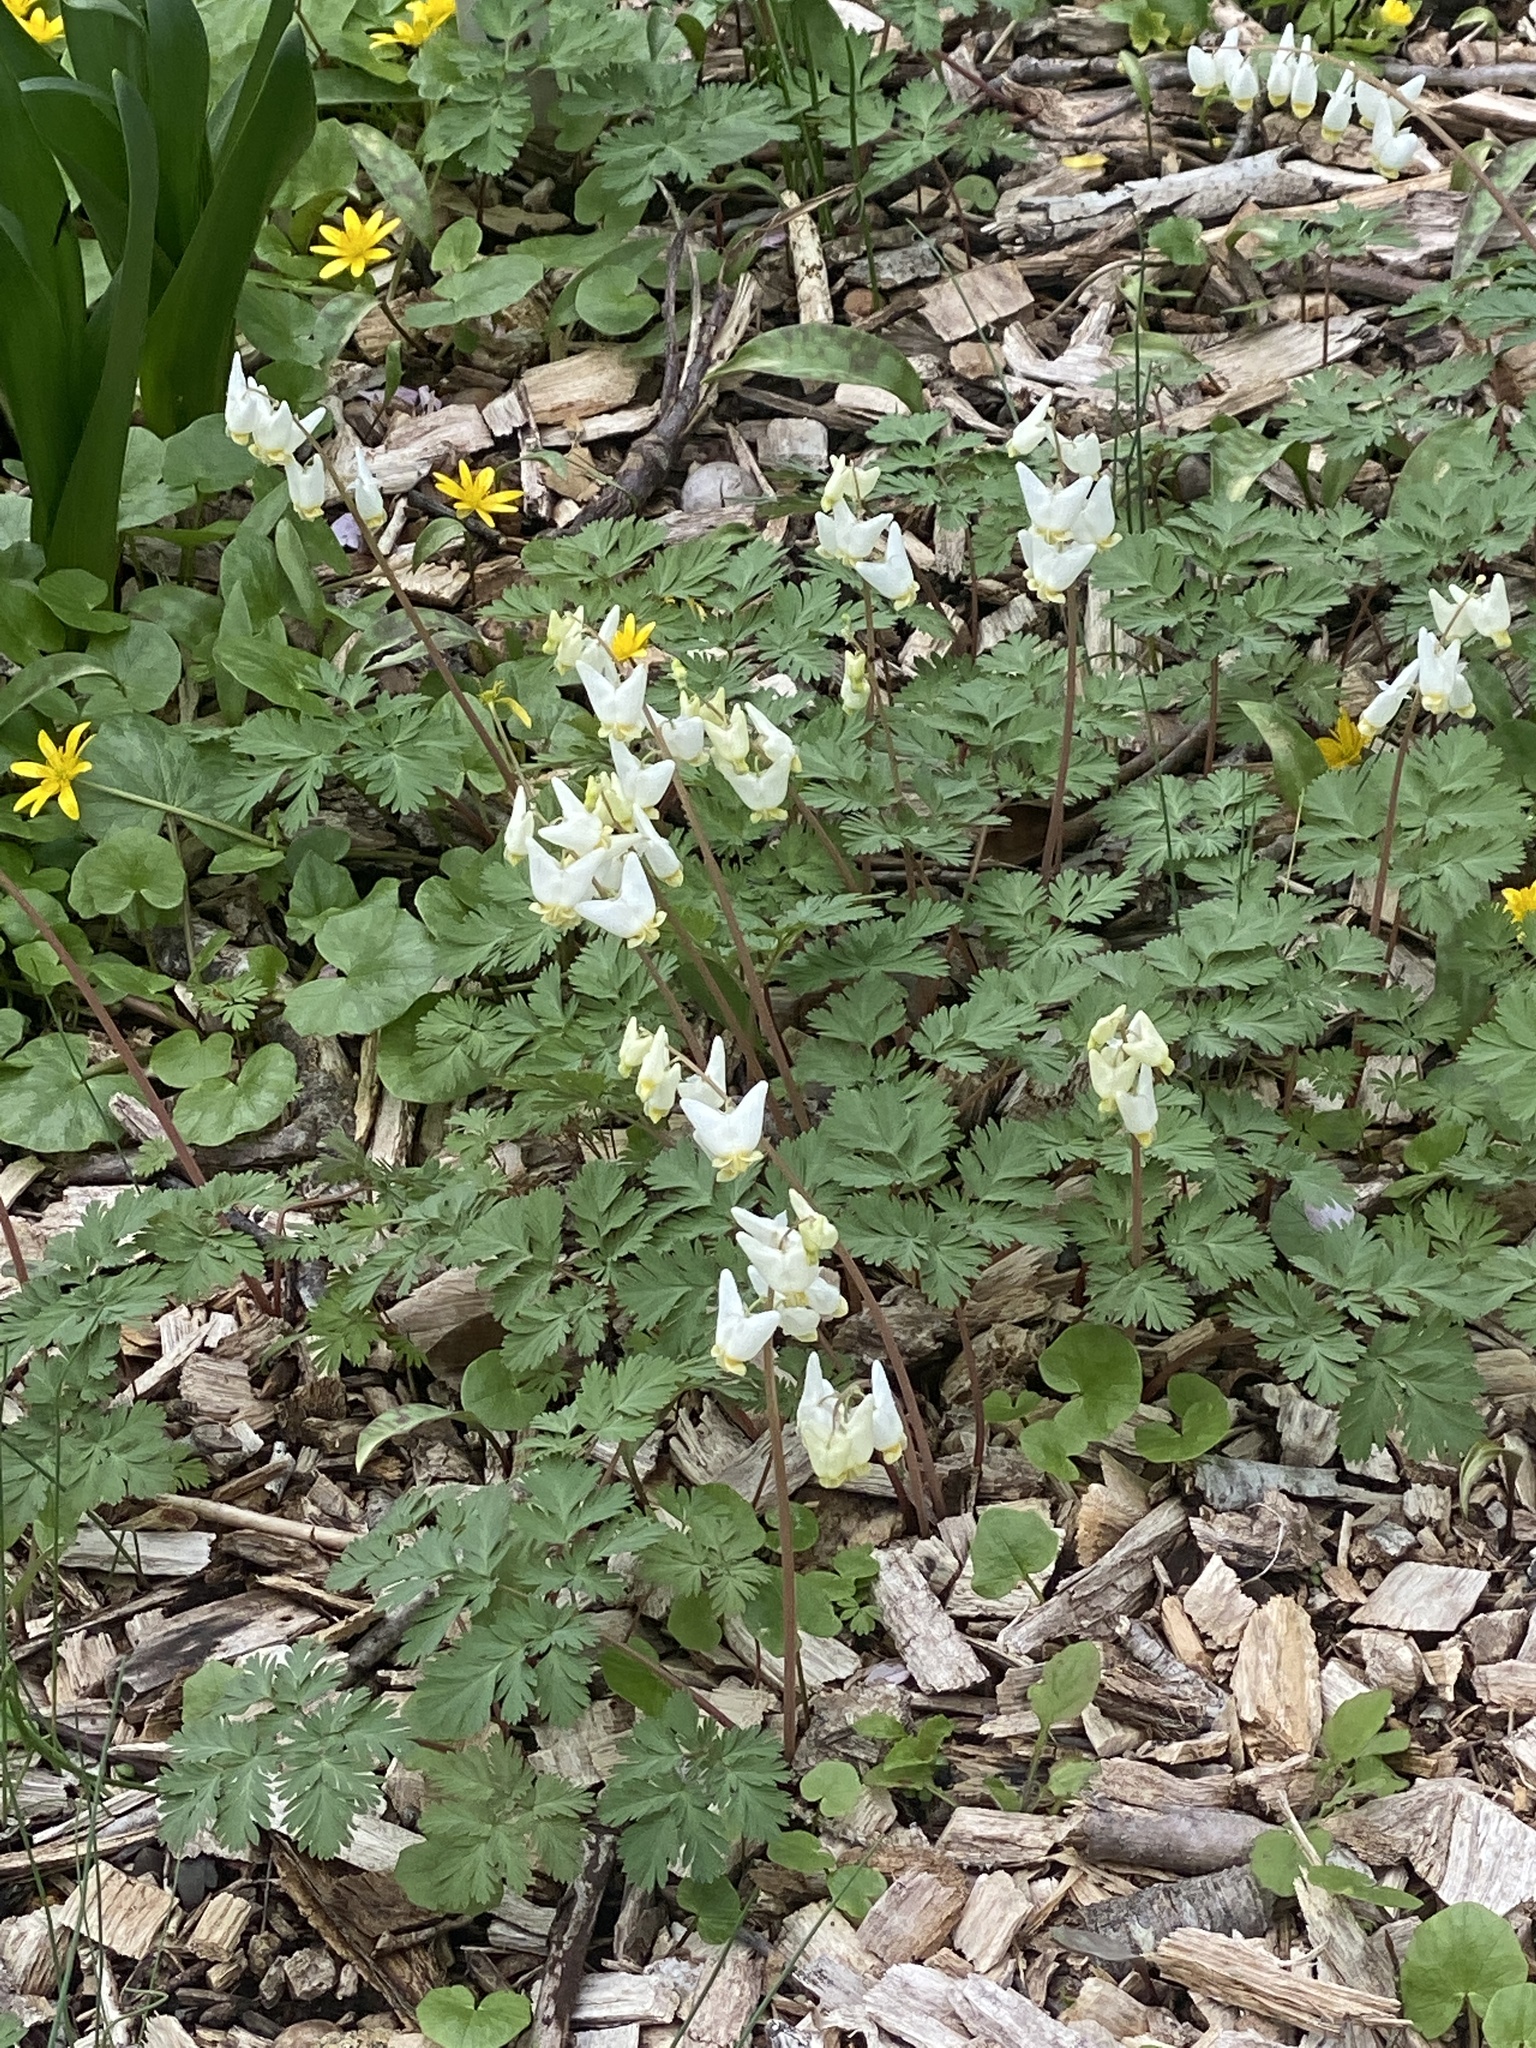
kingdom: Plantae
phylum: Tracheophyta
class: Magnoliopsida
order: Ranunculales
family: Papaveraceae
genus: Dicentra
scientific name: Dicentra cucullaria
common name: Dutchman's breeches
